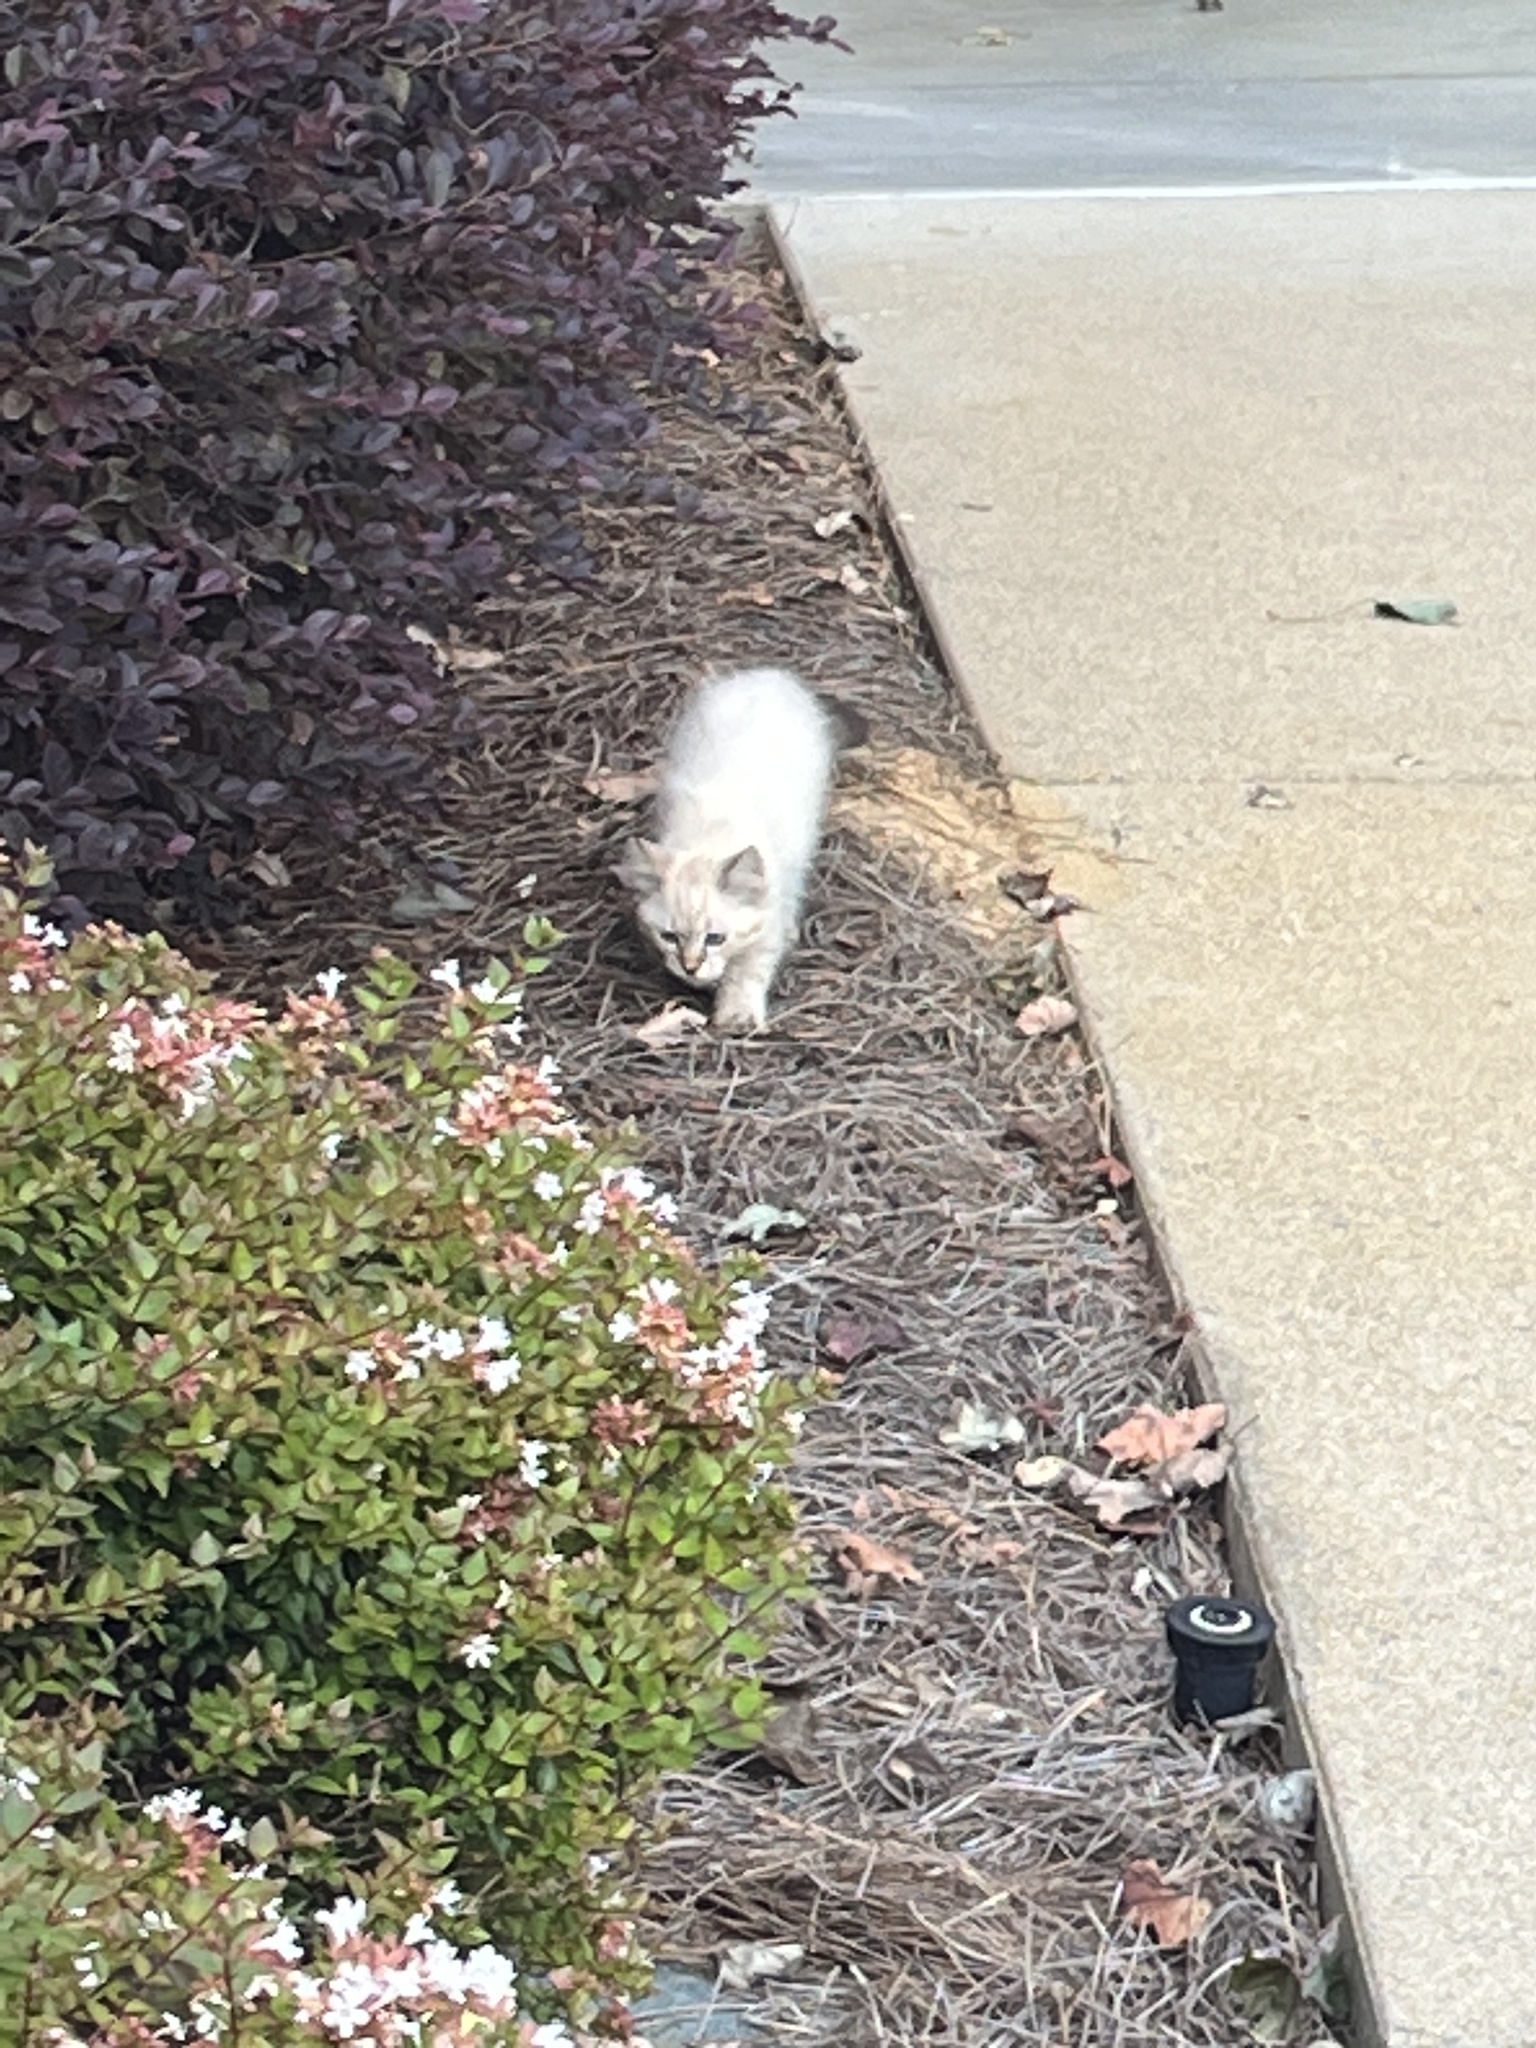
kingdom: Animalia
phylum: Chordata
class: Mammalia
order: Carnivora
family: Felidae
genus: Felis
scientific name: Felis catus
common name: Domestic cat
